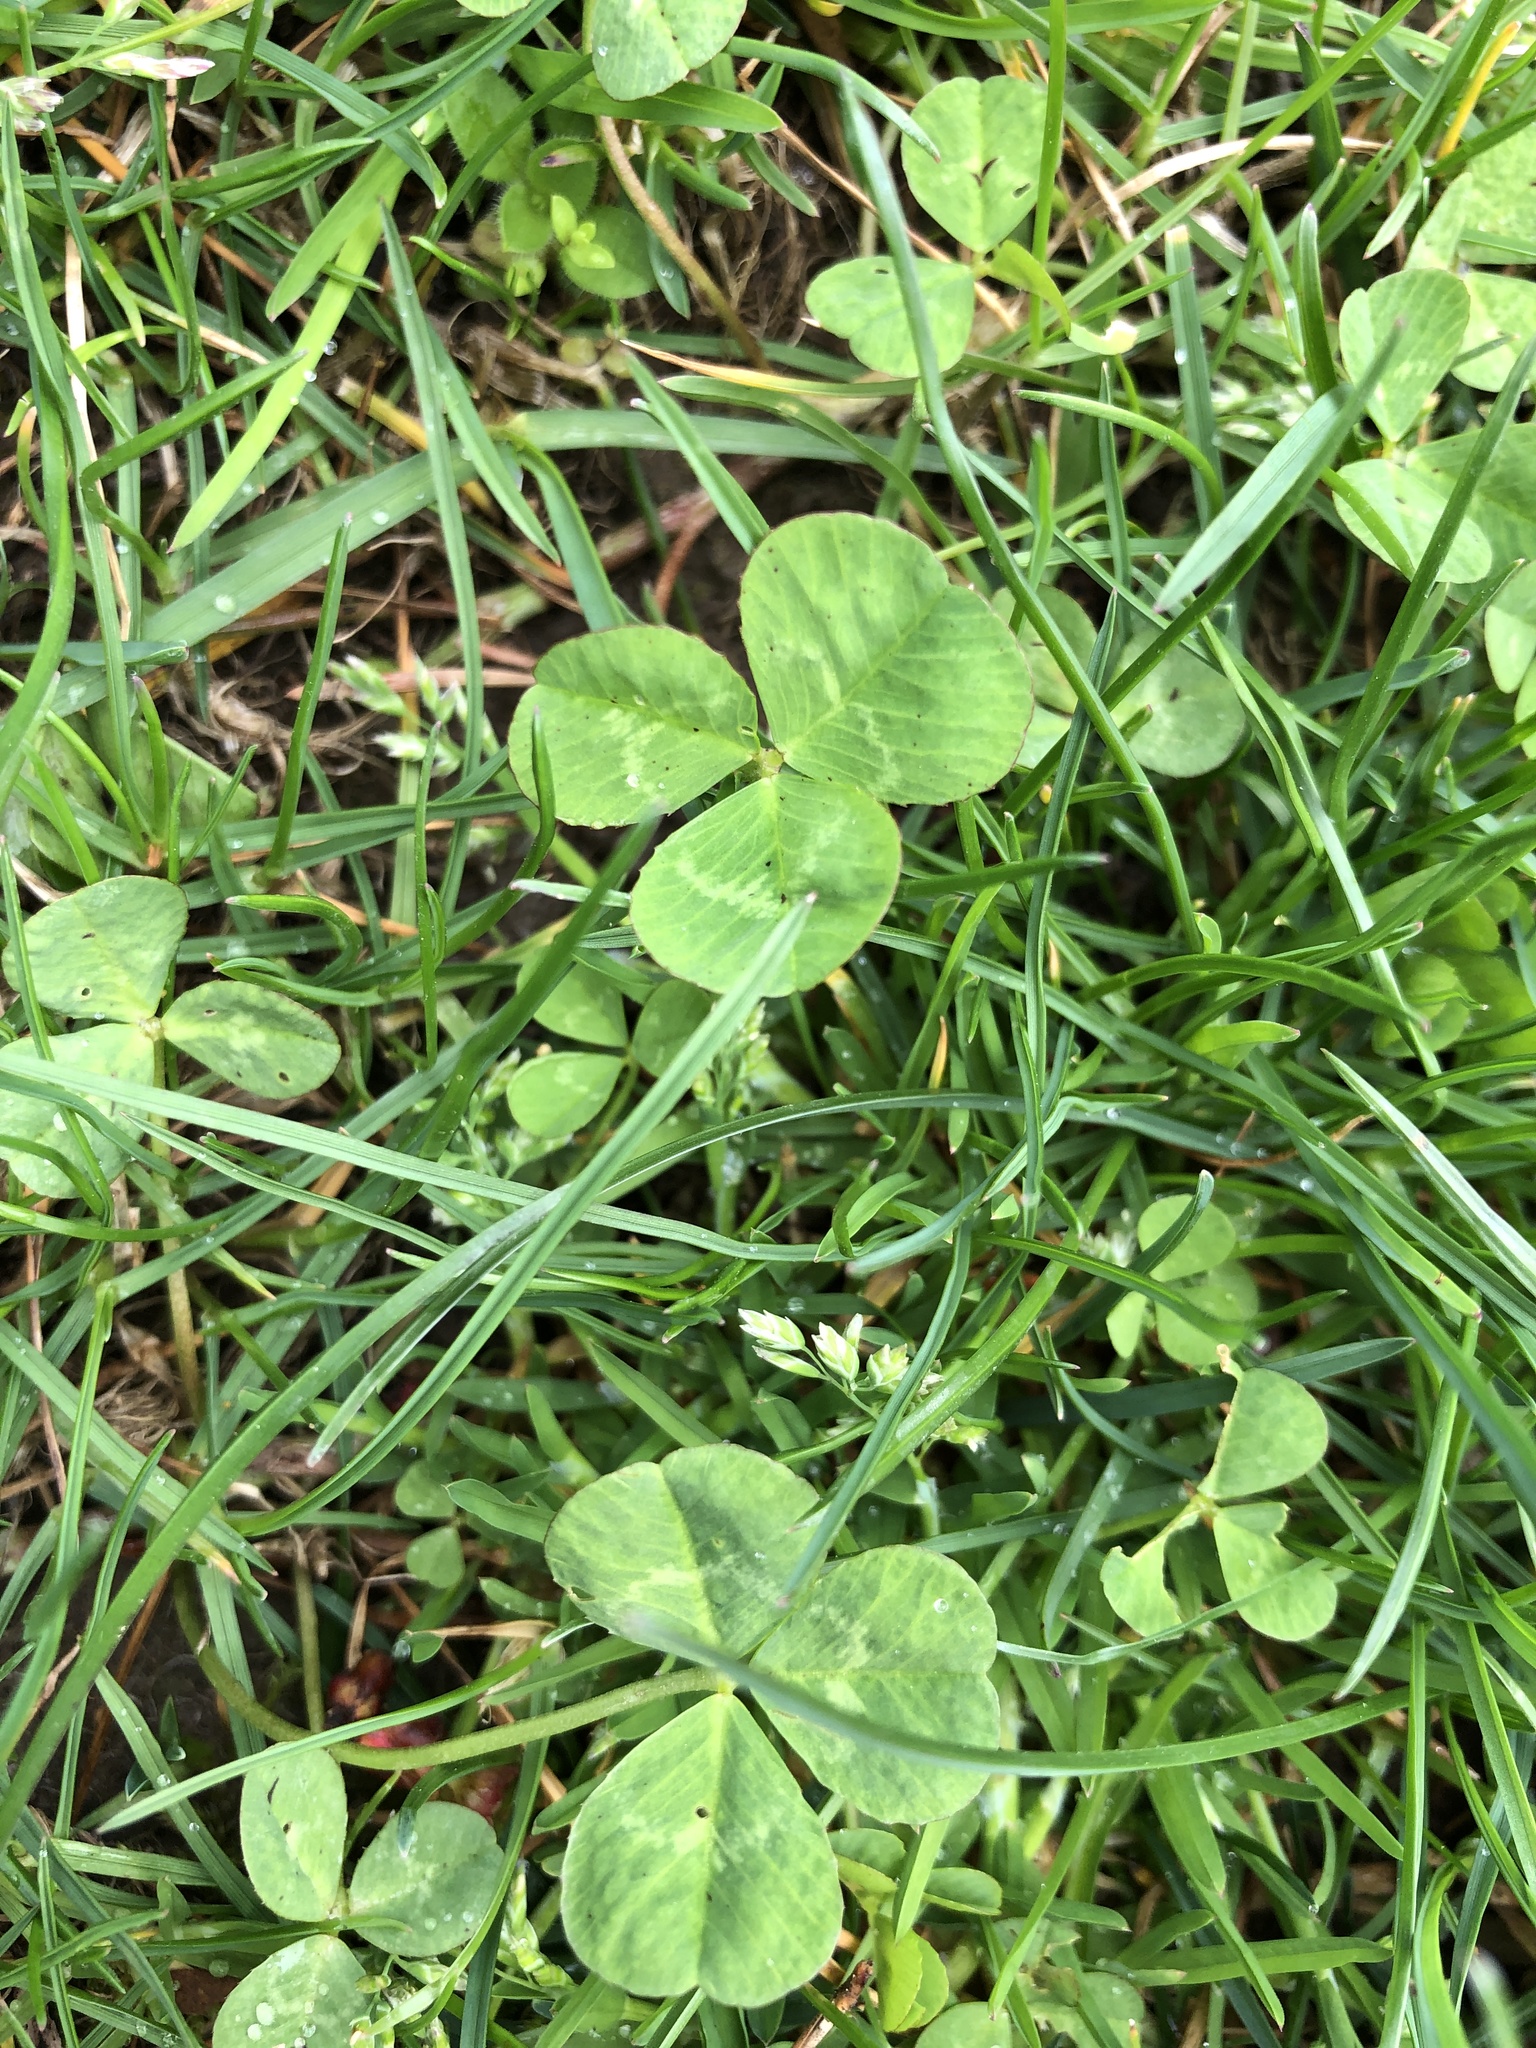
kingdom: Plantae
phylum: Tracheophyta
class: Magnoliopsida
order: Fabales
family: Fabaceae
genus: Trifolium
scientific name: Trifolium repens
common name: White clover
